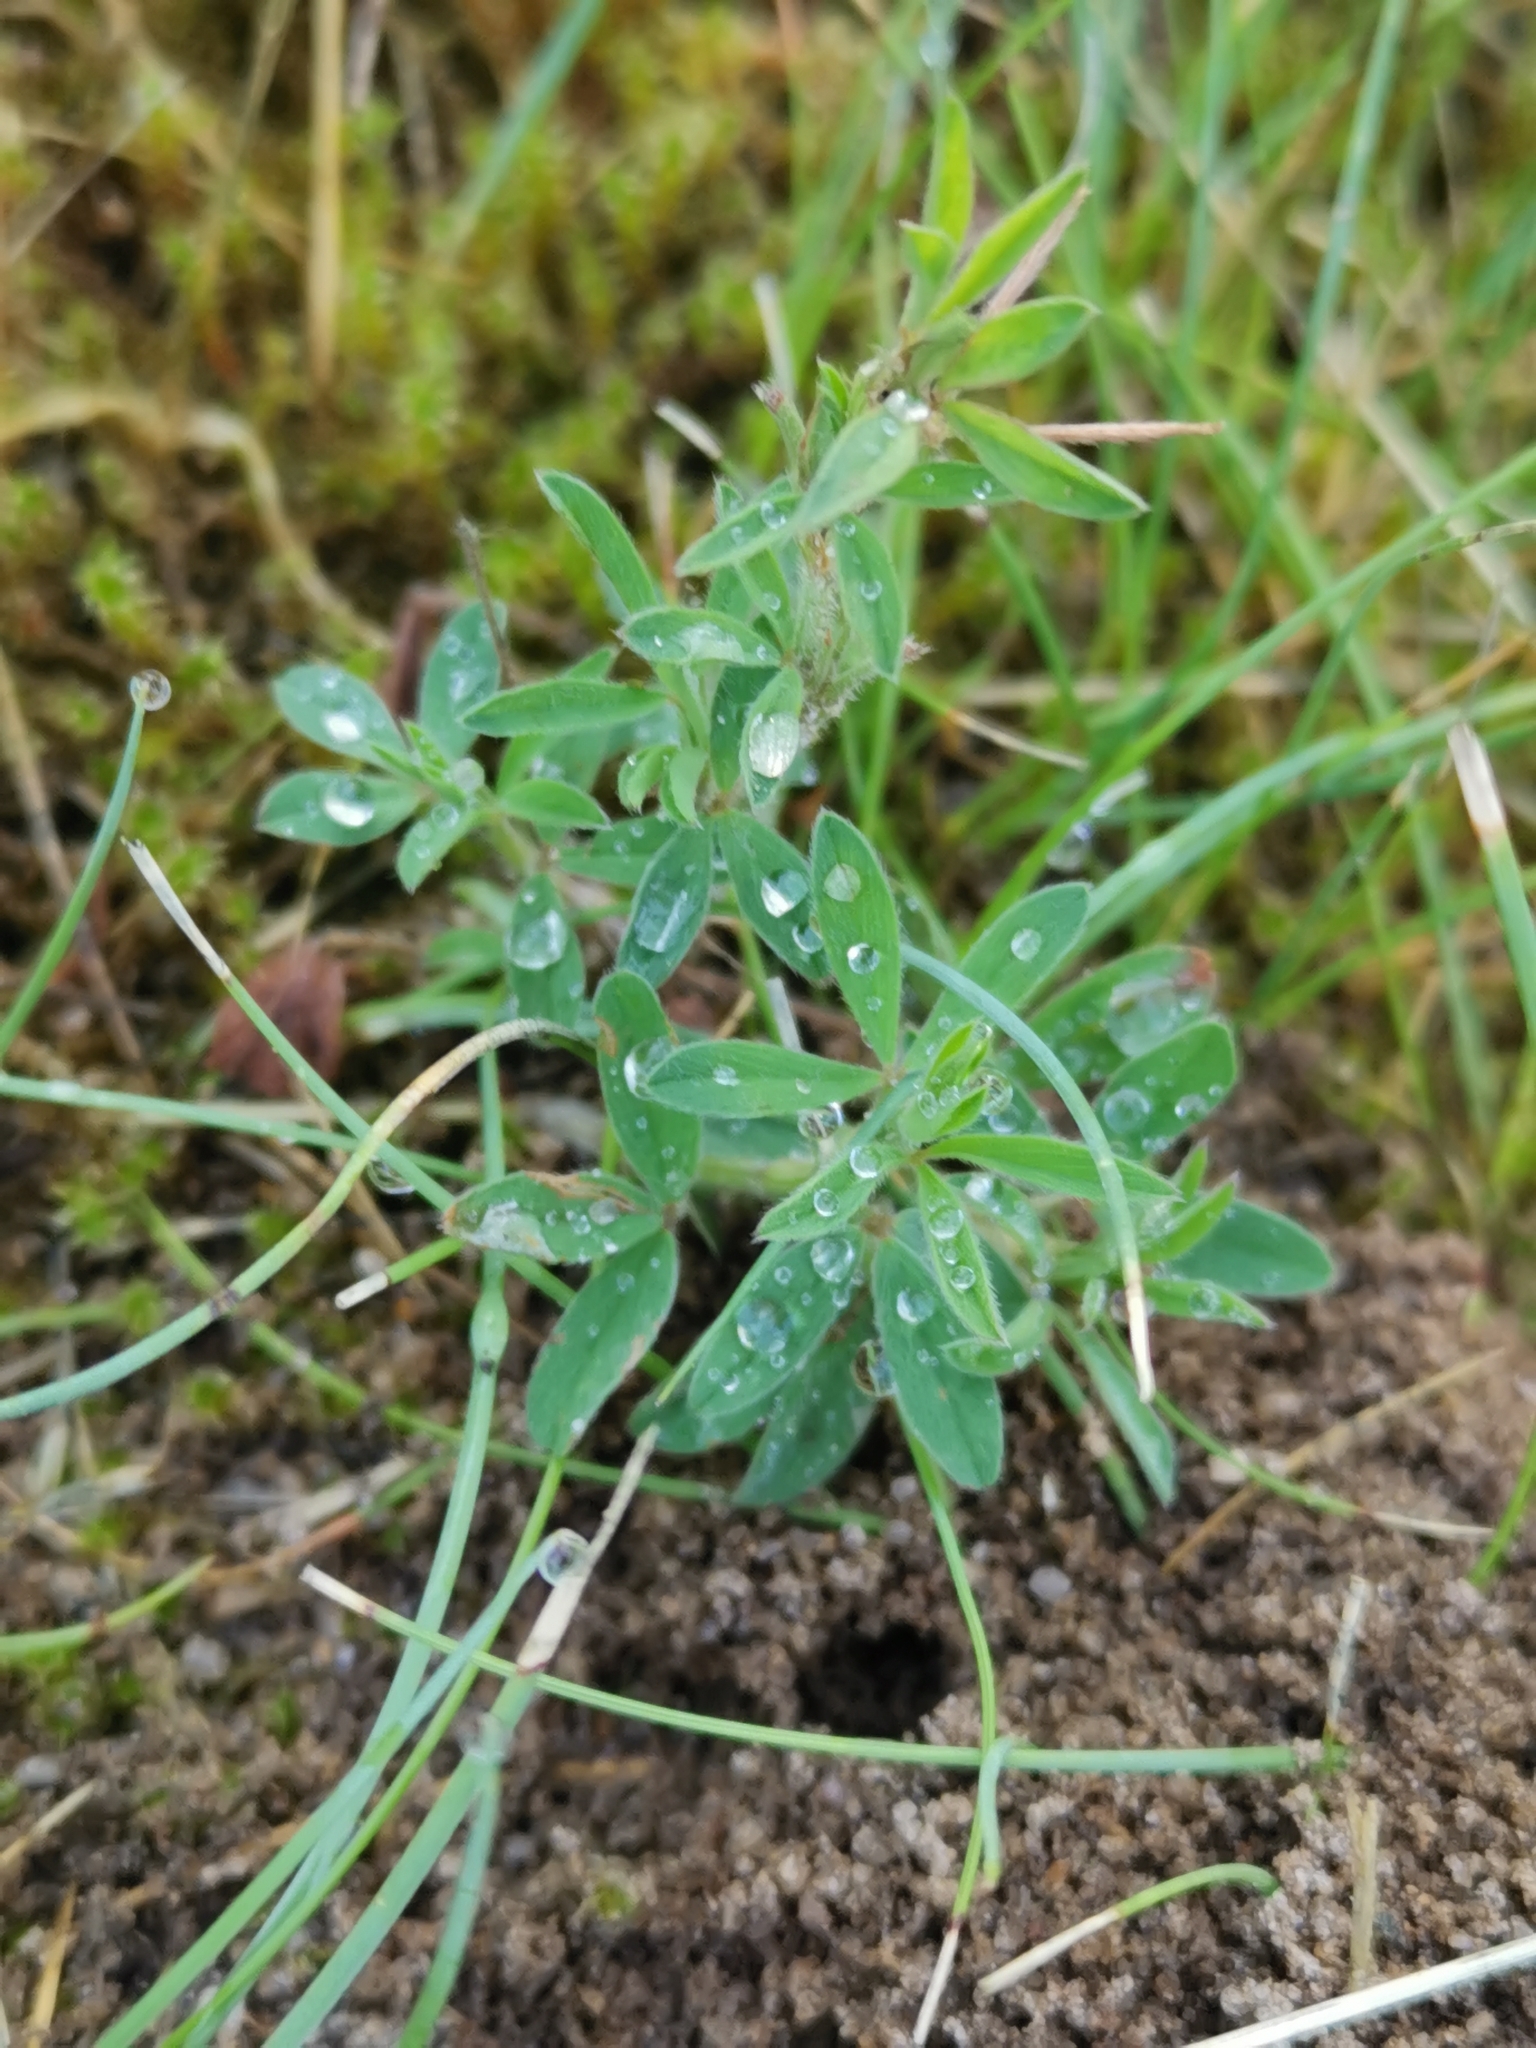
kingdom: Plantae
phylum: Tracheophyta
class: Magnoliopsida
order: Fabales
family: Fabaceae
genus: Trifolium
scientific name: Trifolium arvense
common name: Hare's-foot clover
